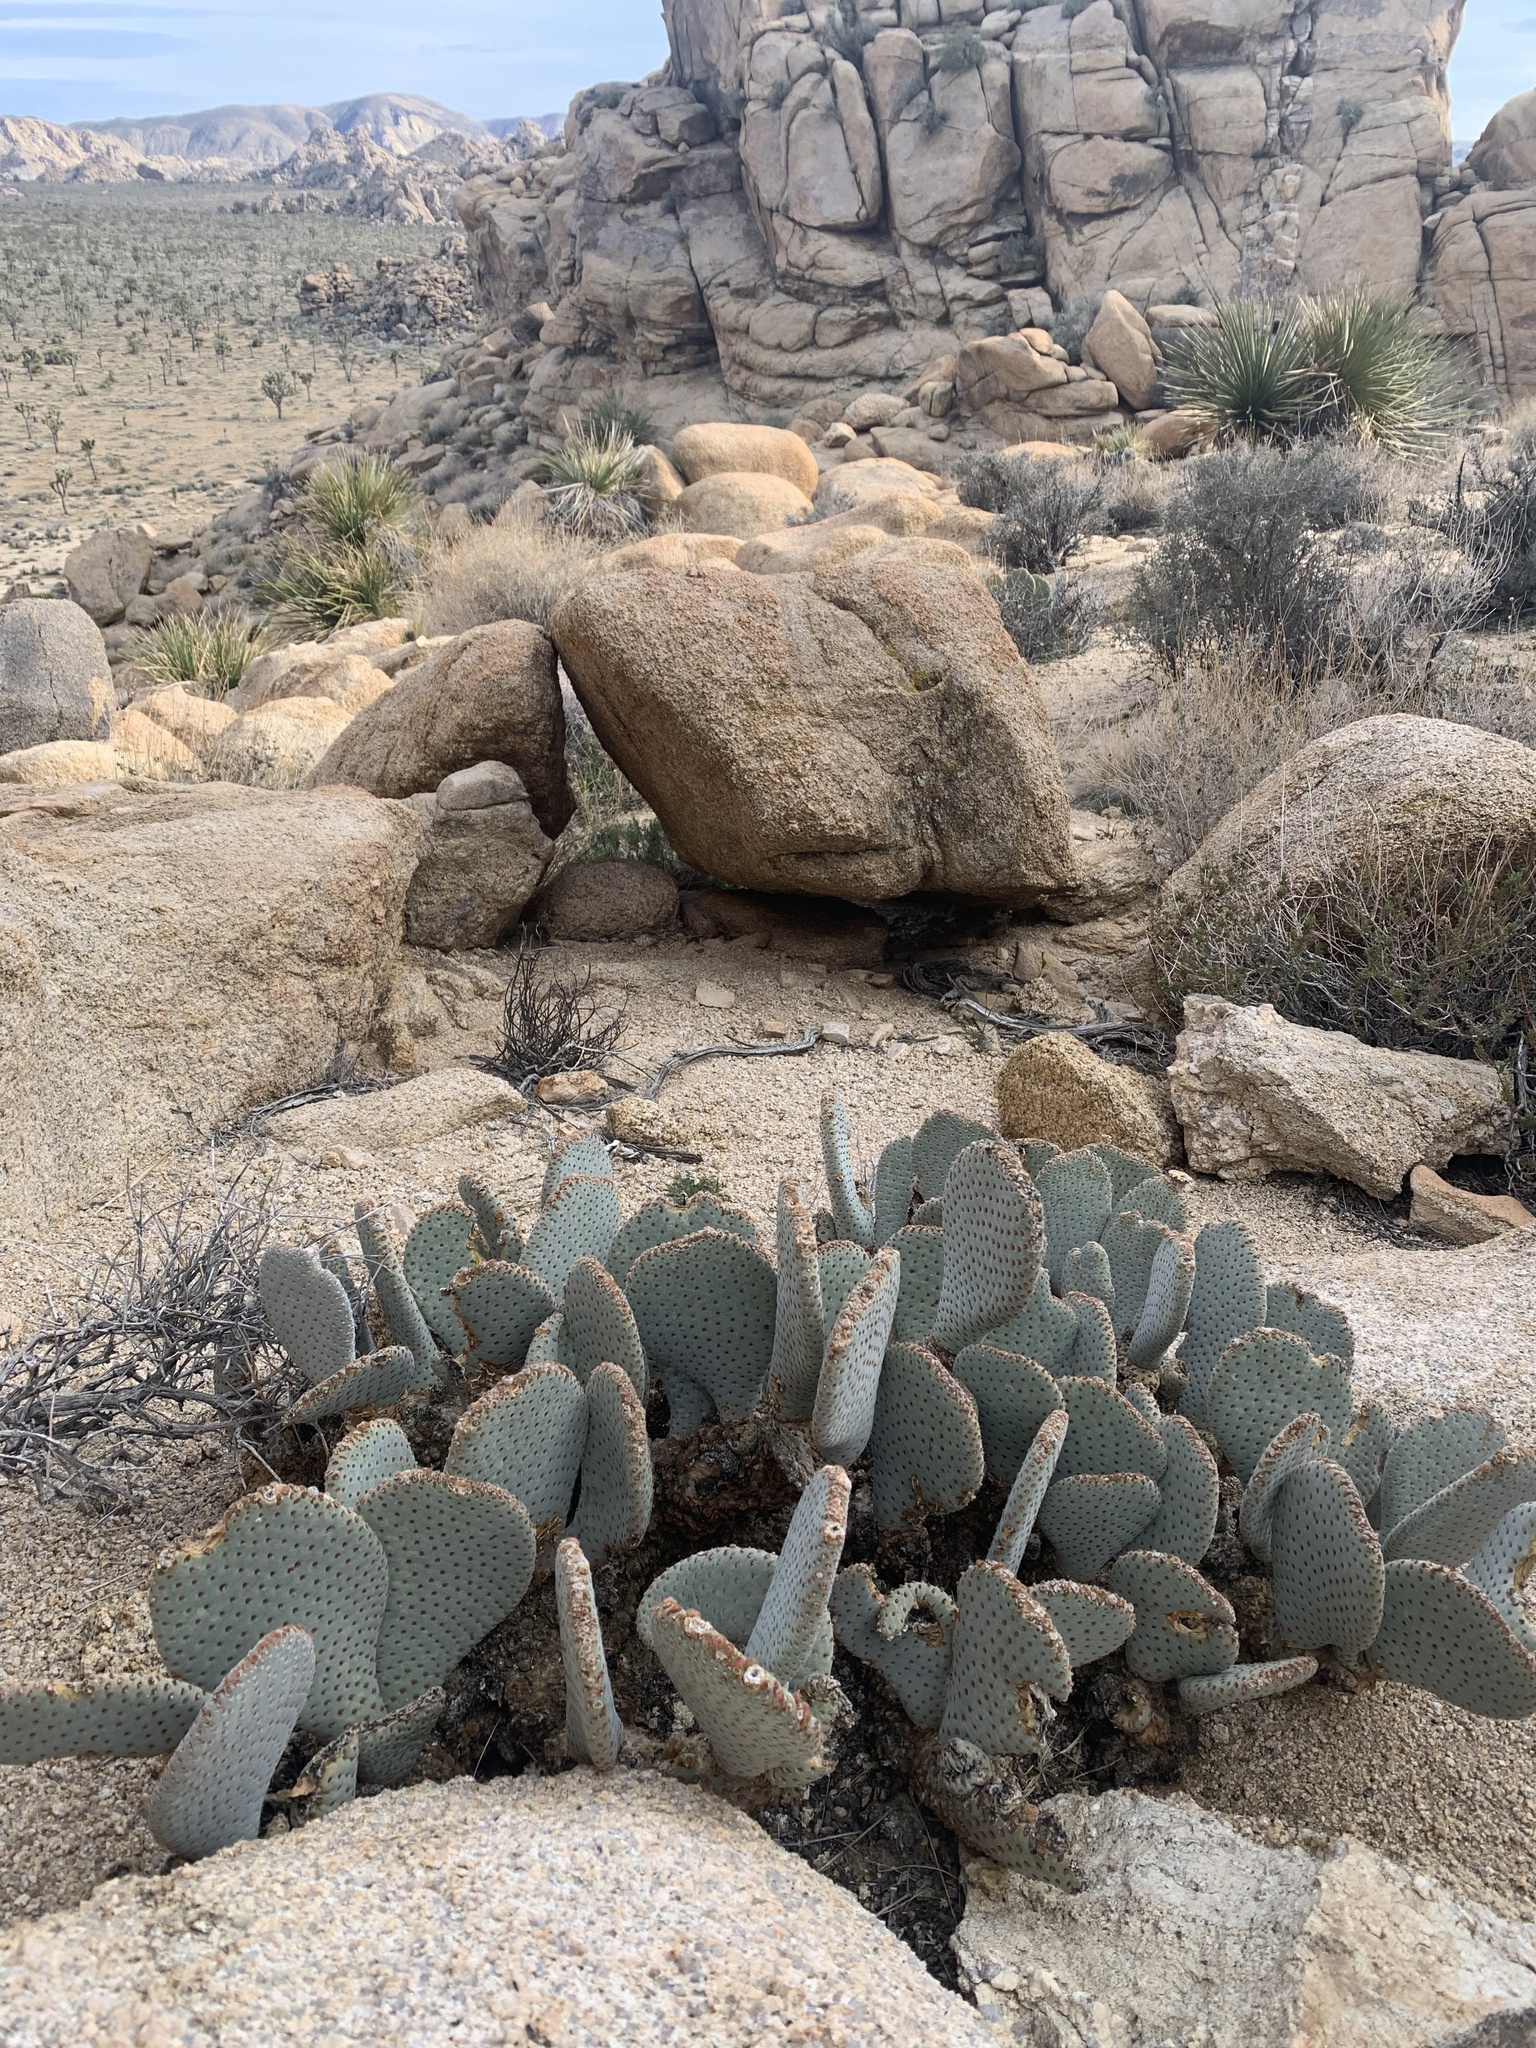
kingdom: Plantae
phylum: Tracheophyta
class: Magnoliopsida
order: Caryophyllales
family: Cactaceae
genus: Opuntia
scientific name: Opuntia basilaris
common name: Beavertail prickly-pear
